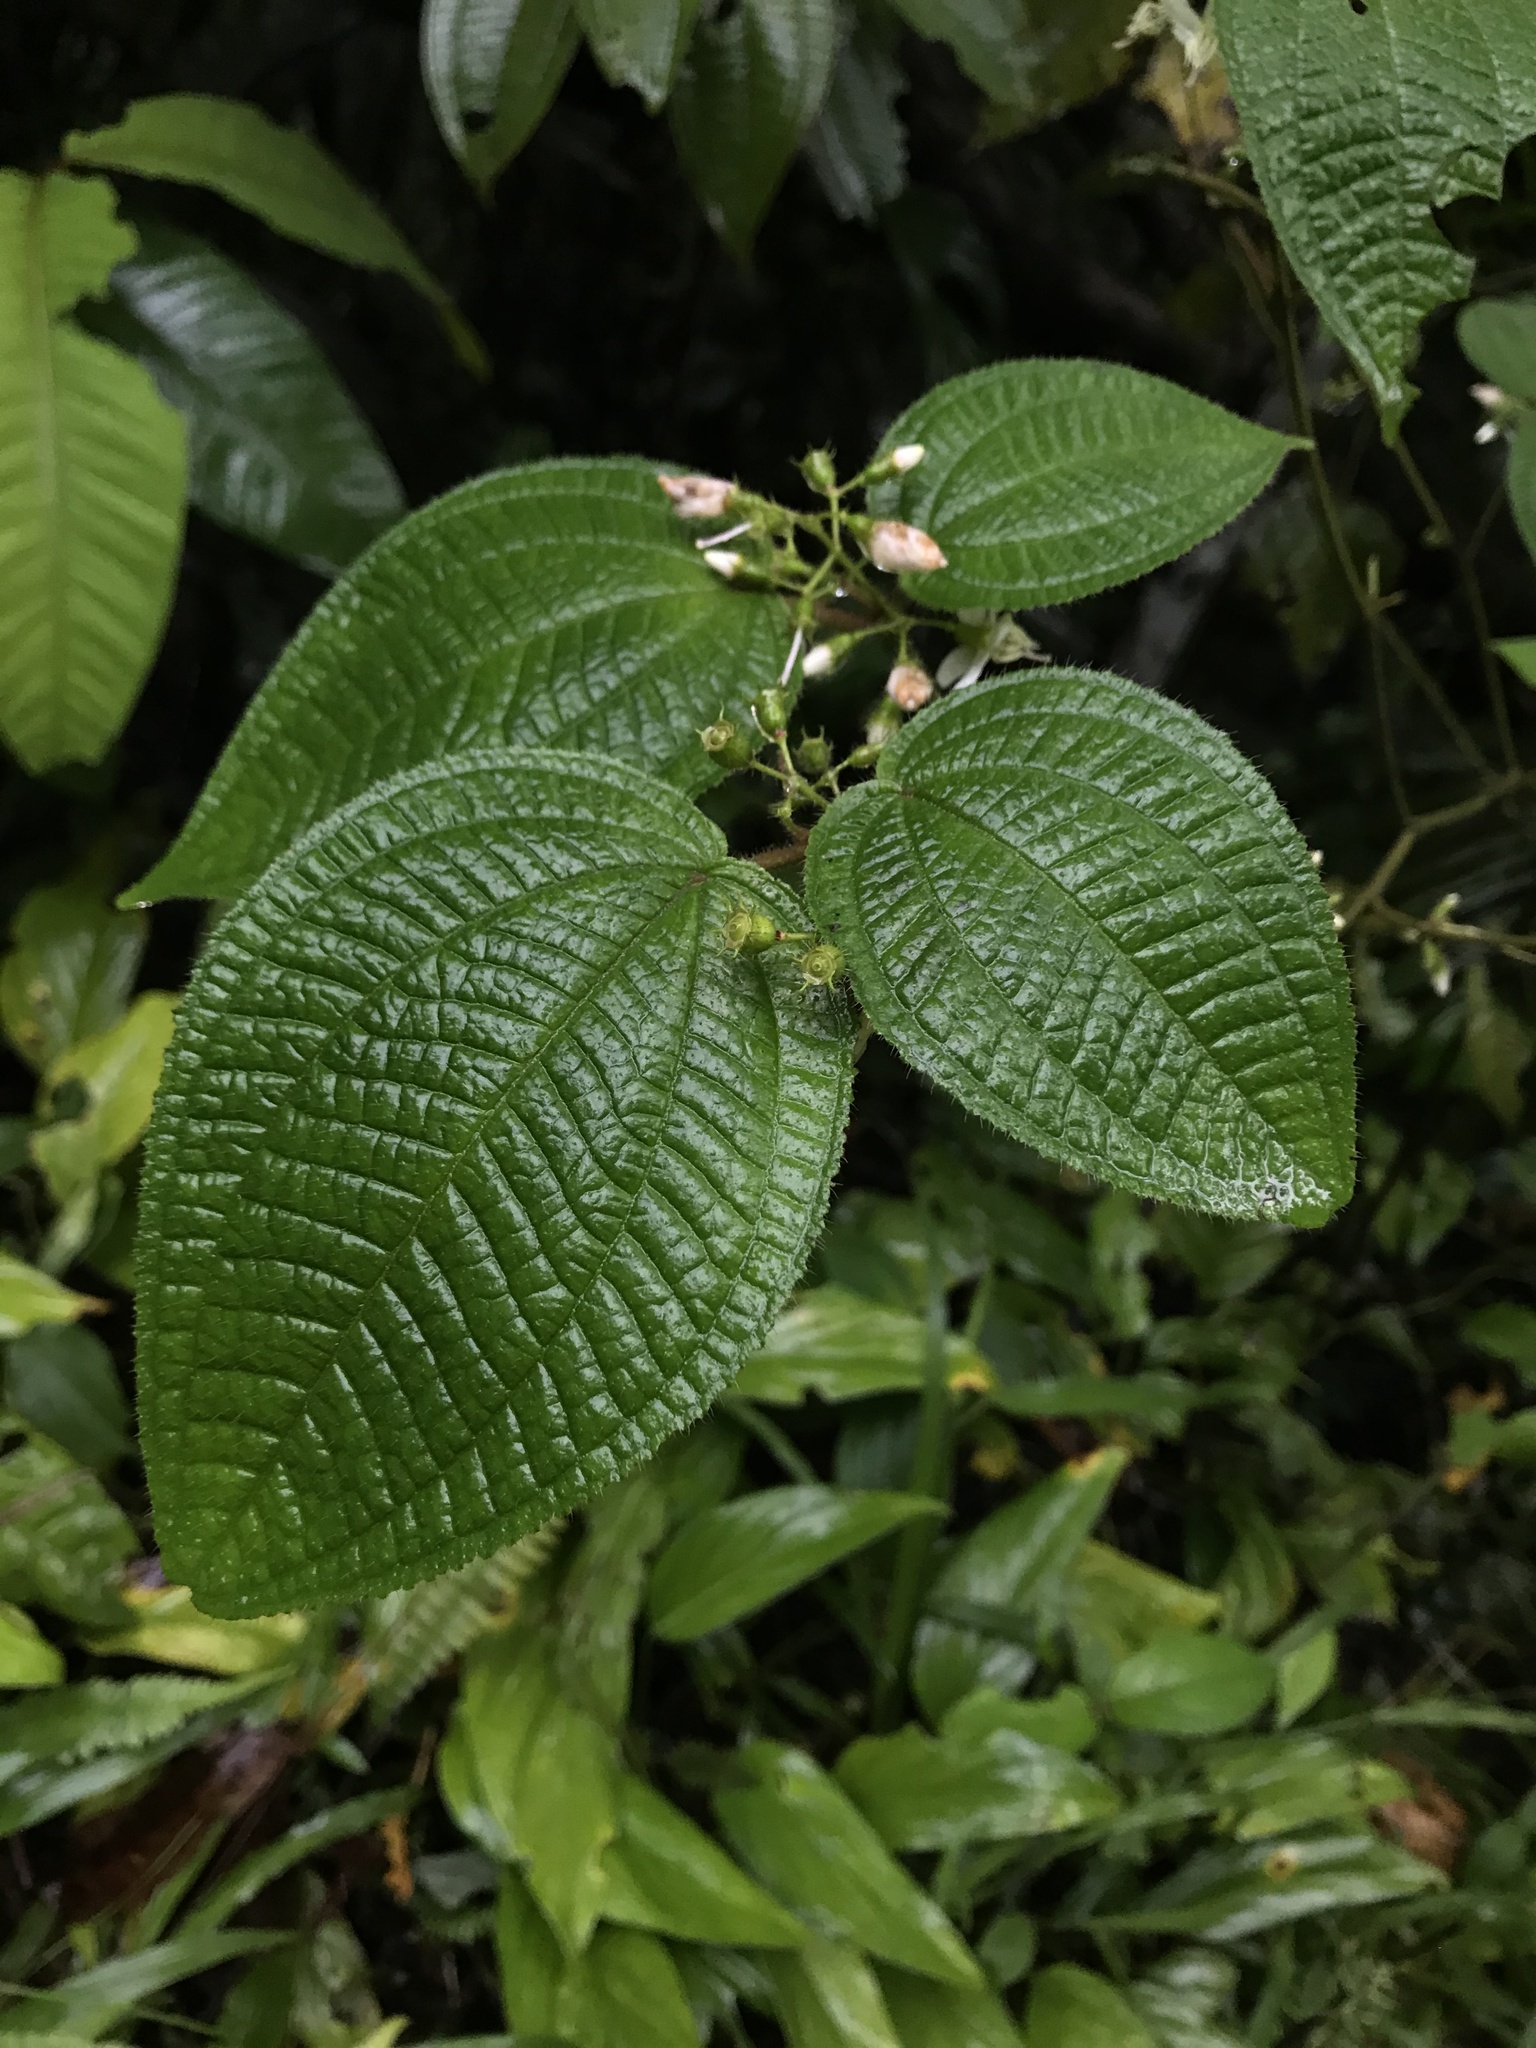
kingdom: Plantae
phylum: Tracheophyta
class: Magnoliopsida
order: Myrtales
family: Melastomataceae
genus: Miconia
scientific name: Miconia crenata
